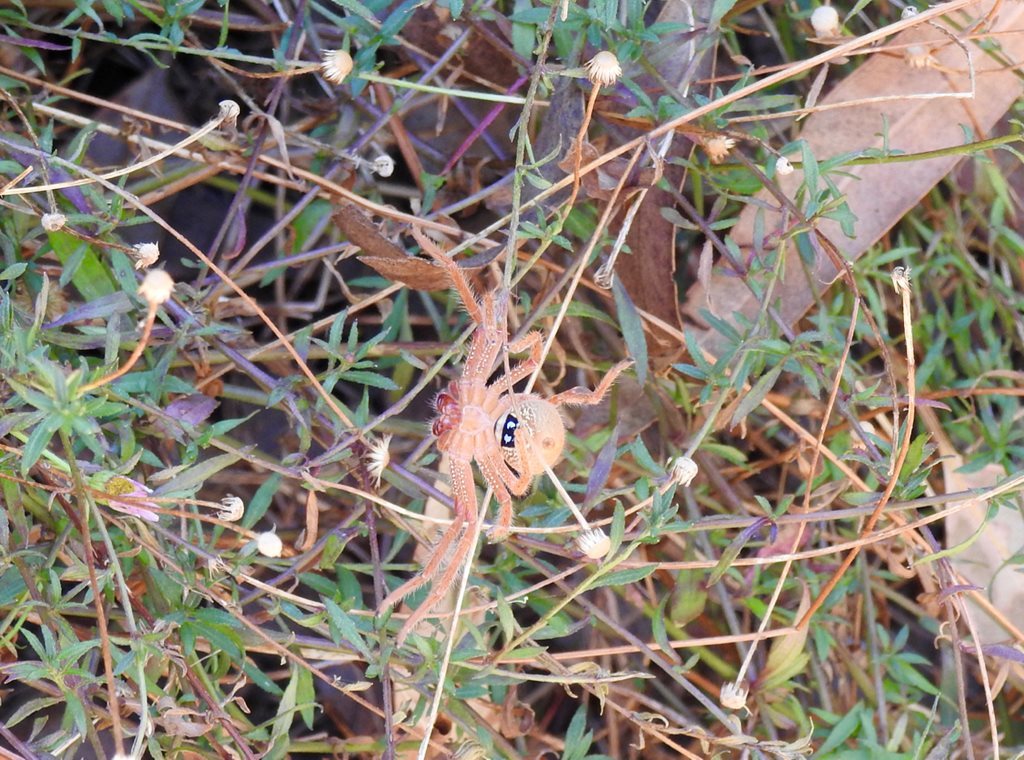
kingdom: Animalia
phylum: Arthropoda
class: Arachnida
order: Araneae
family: Sparassidae
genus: Neosparassus
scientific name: Neosparassus diana
